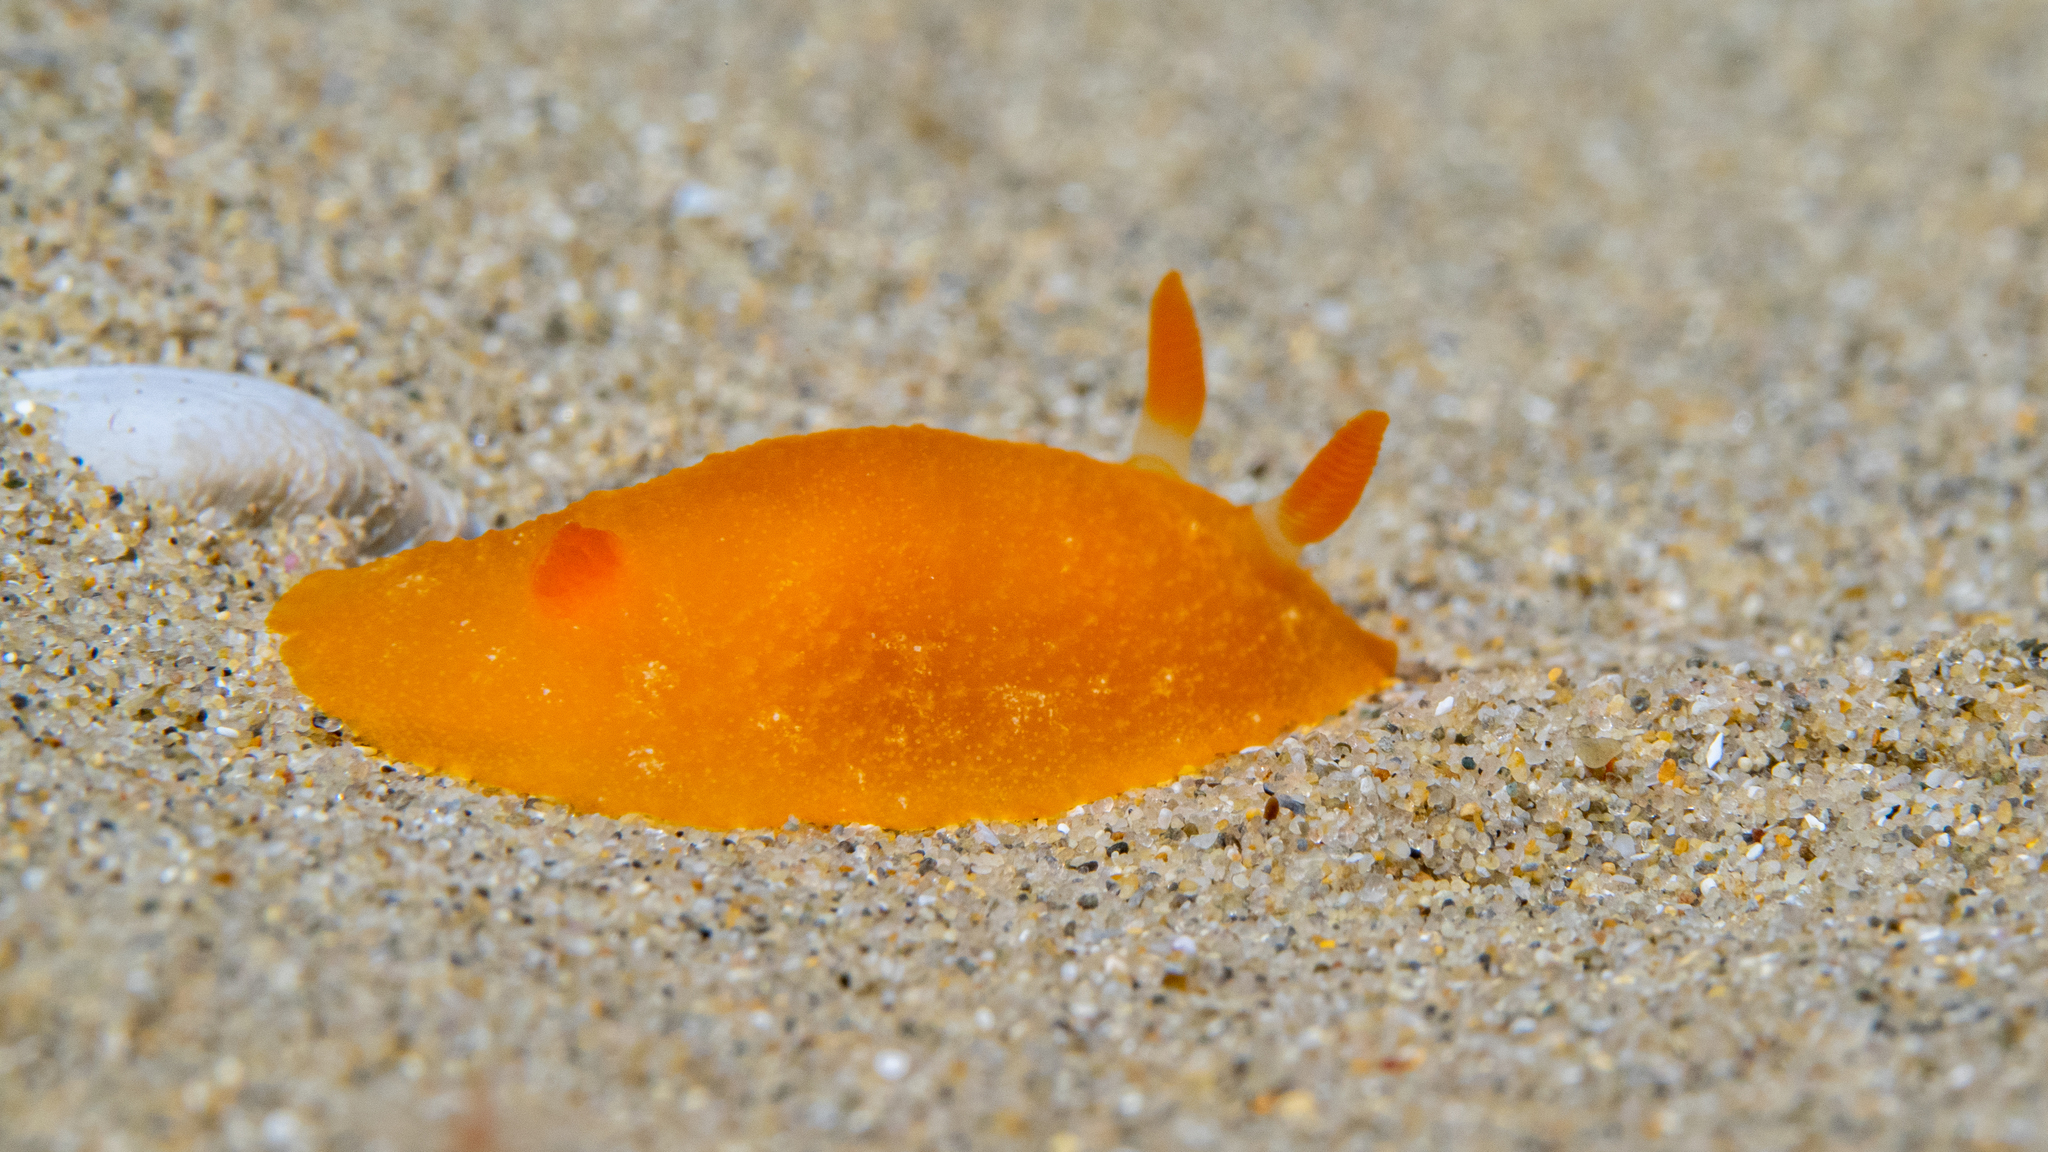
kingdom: Animalia
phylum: Mollusca
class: Gastropoda
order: Nudibranchia
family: Dendrodorididae
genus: Doriopsilla
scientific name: Doriopsilla carneola
